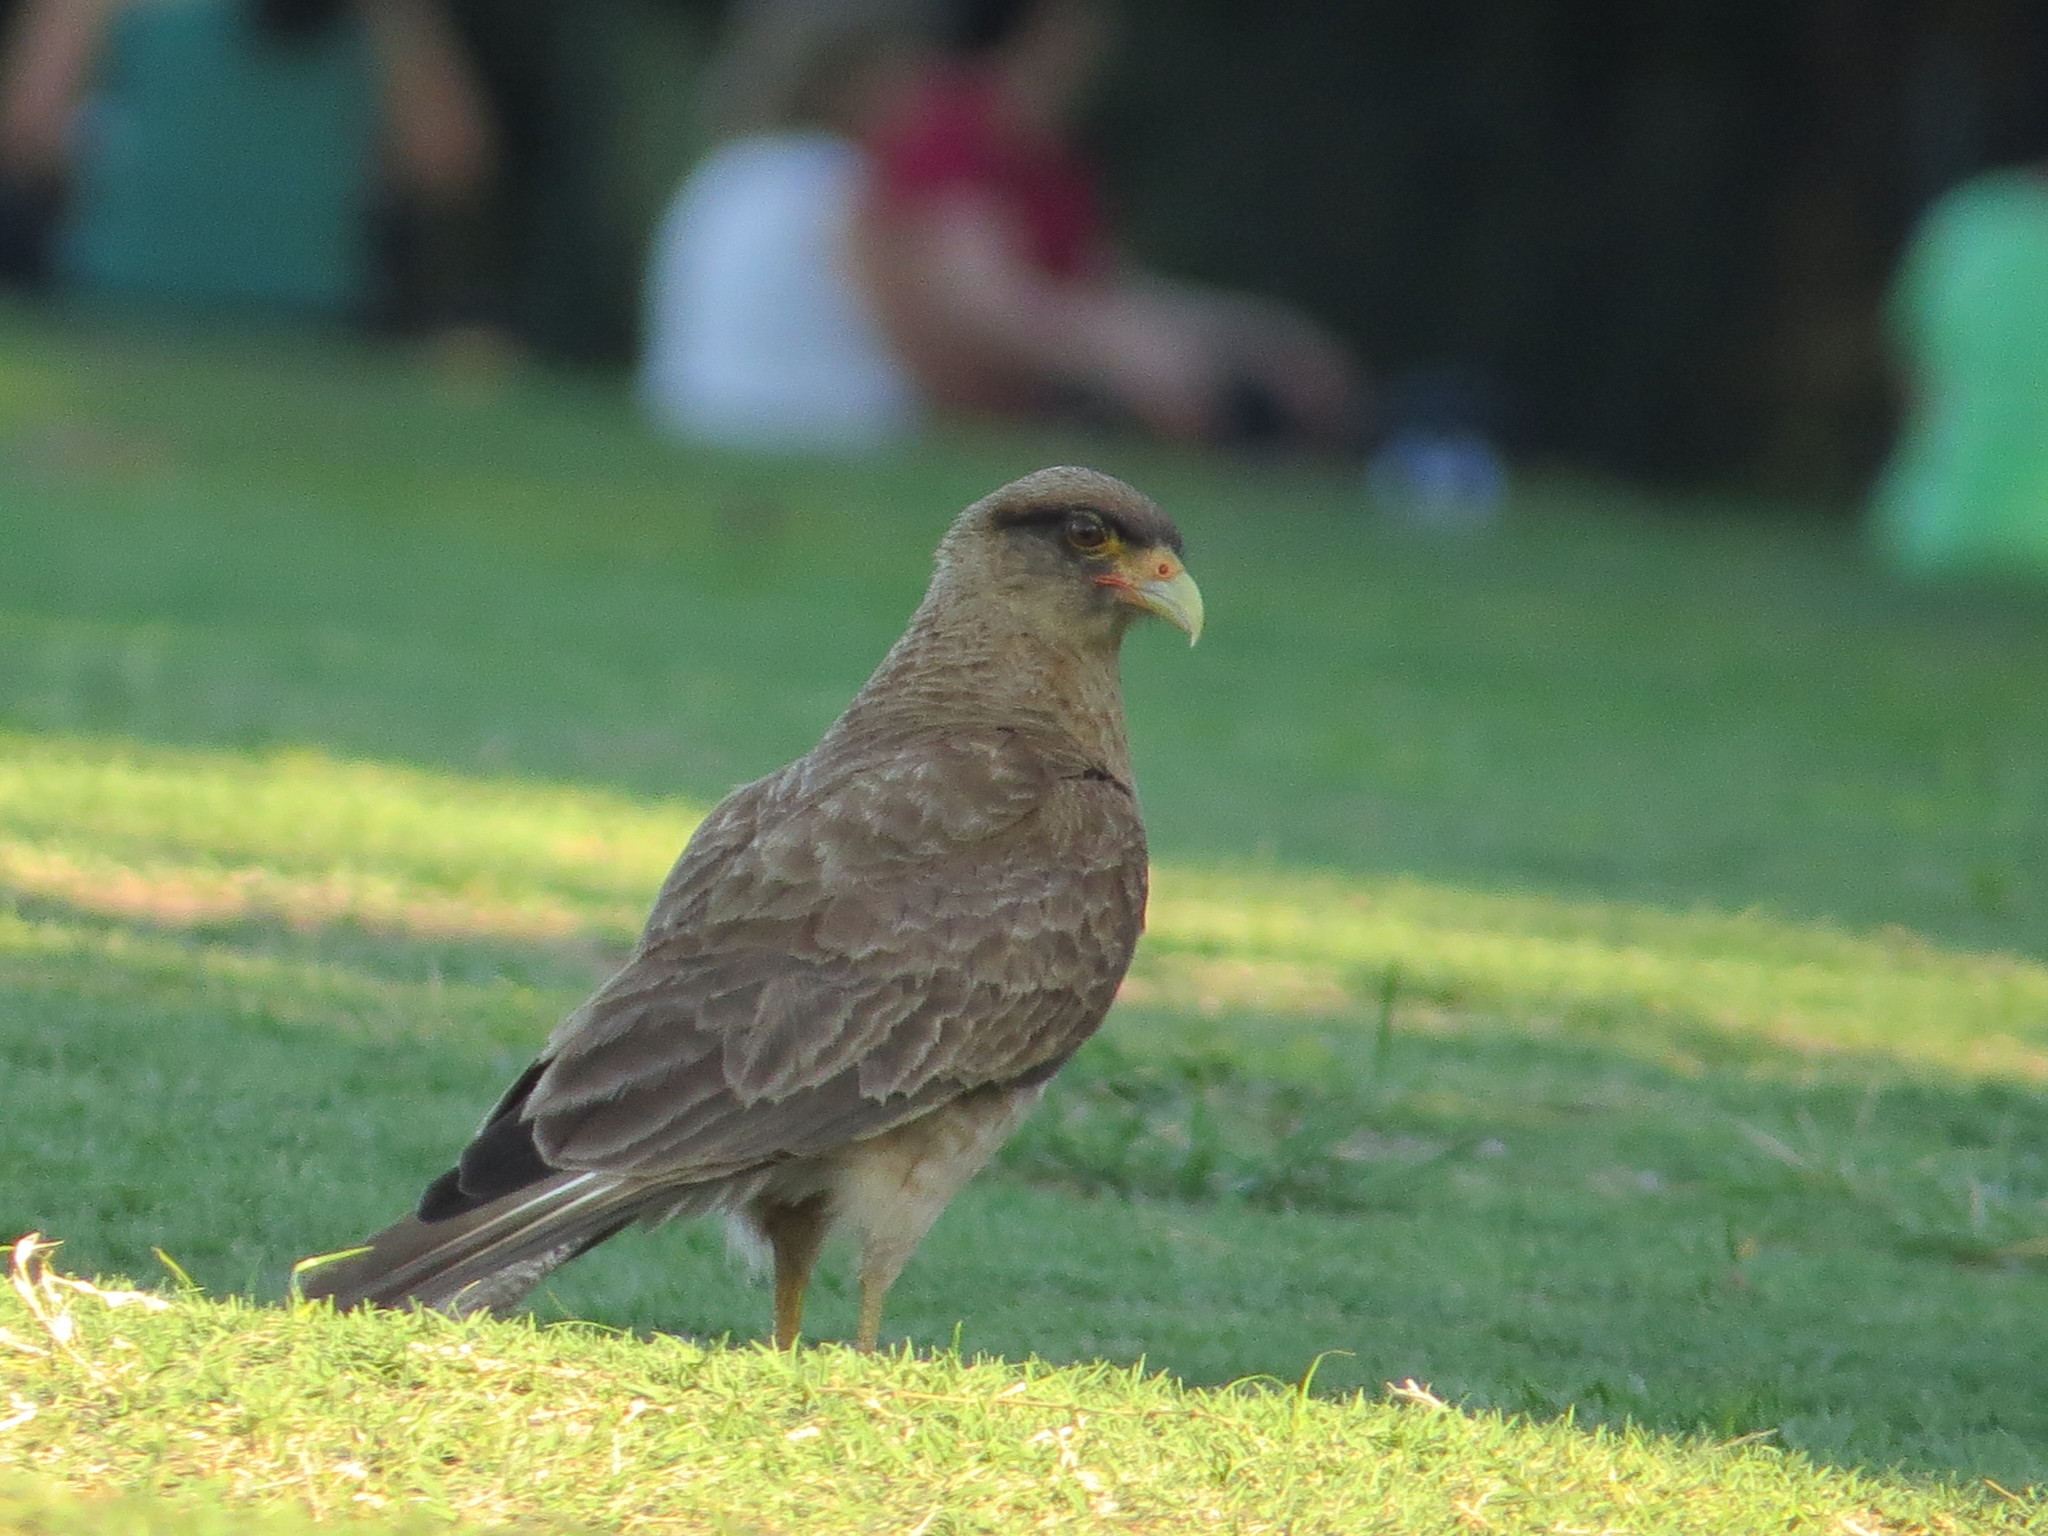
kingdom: Animalia
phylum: Chordata
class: Aves
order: Falconiformes
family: Falconidae
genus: Daptrius
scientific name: Daptrius
